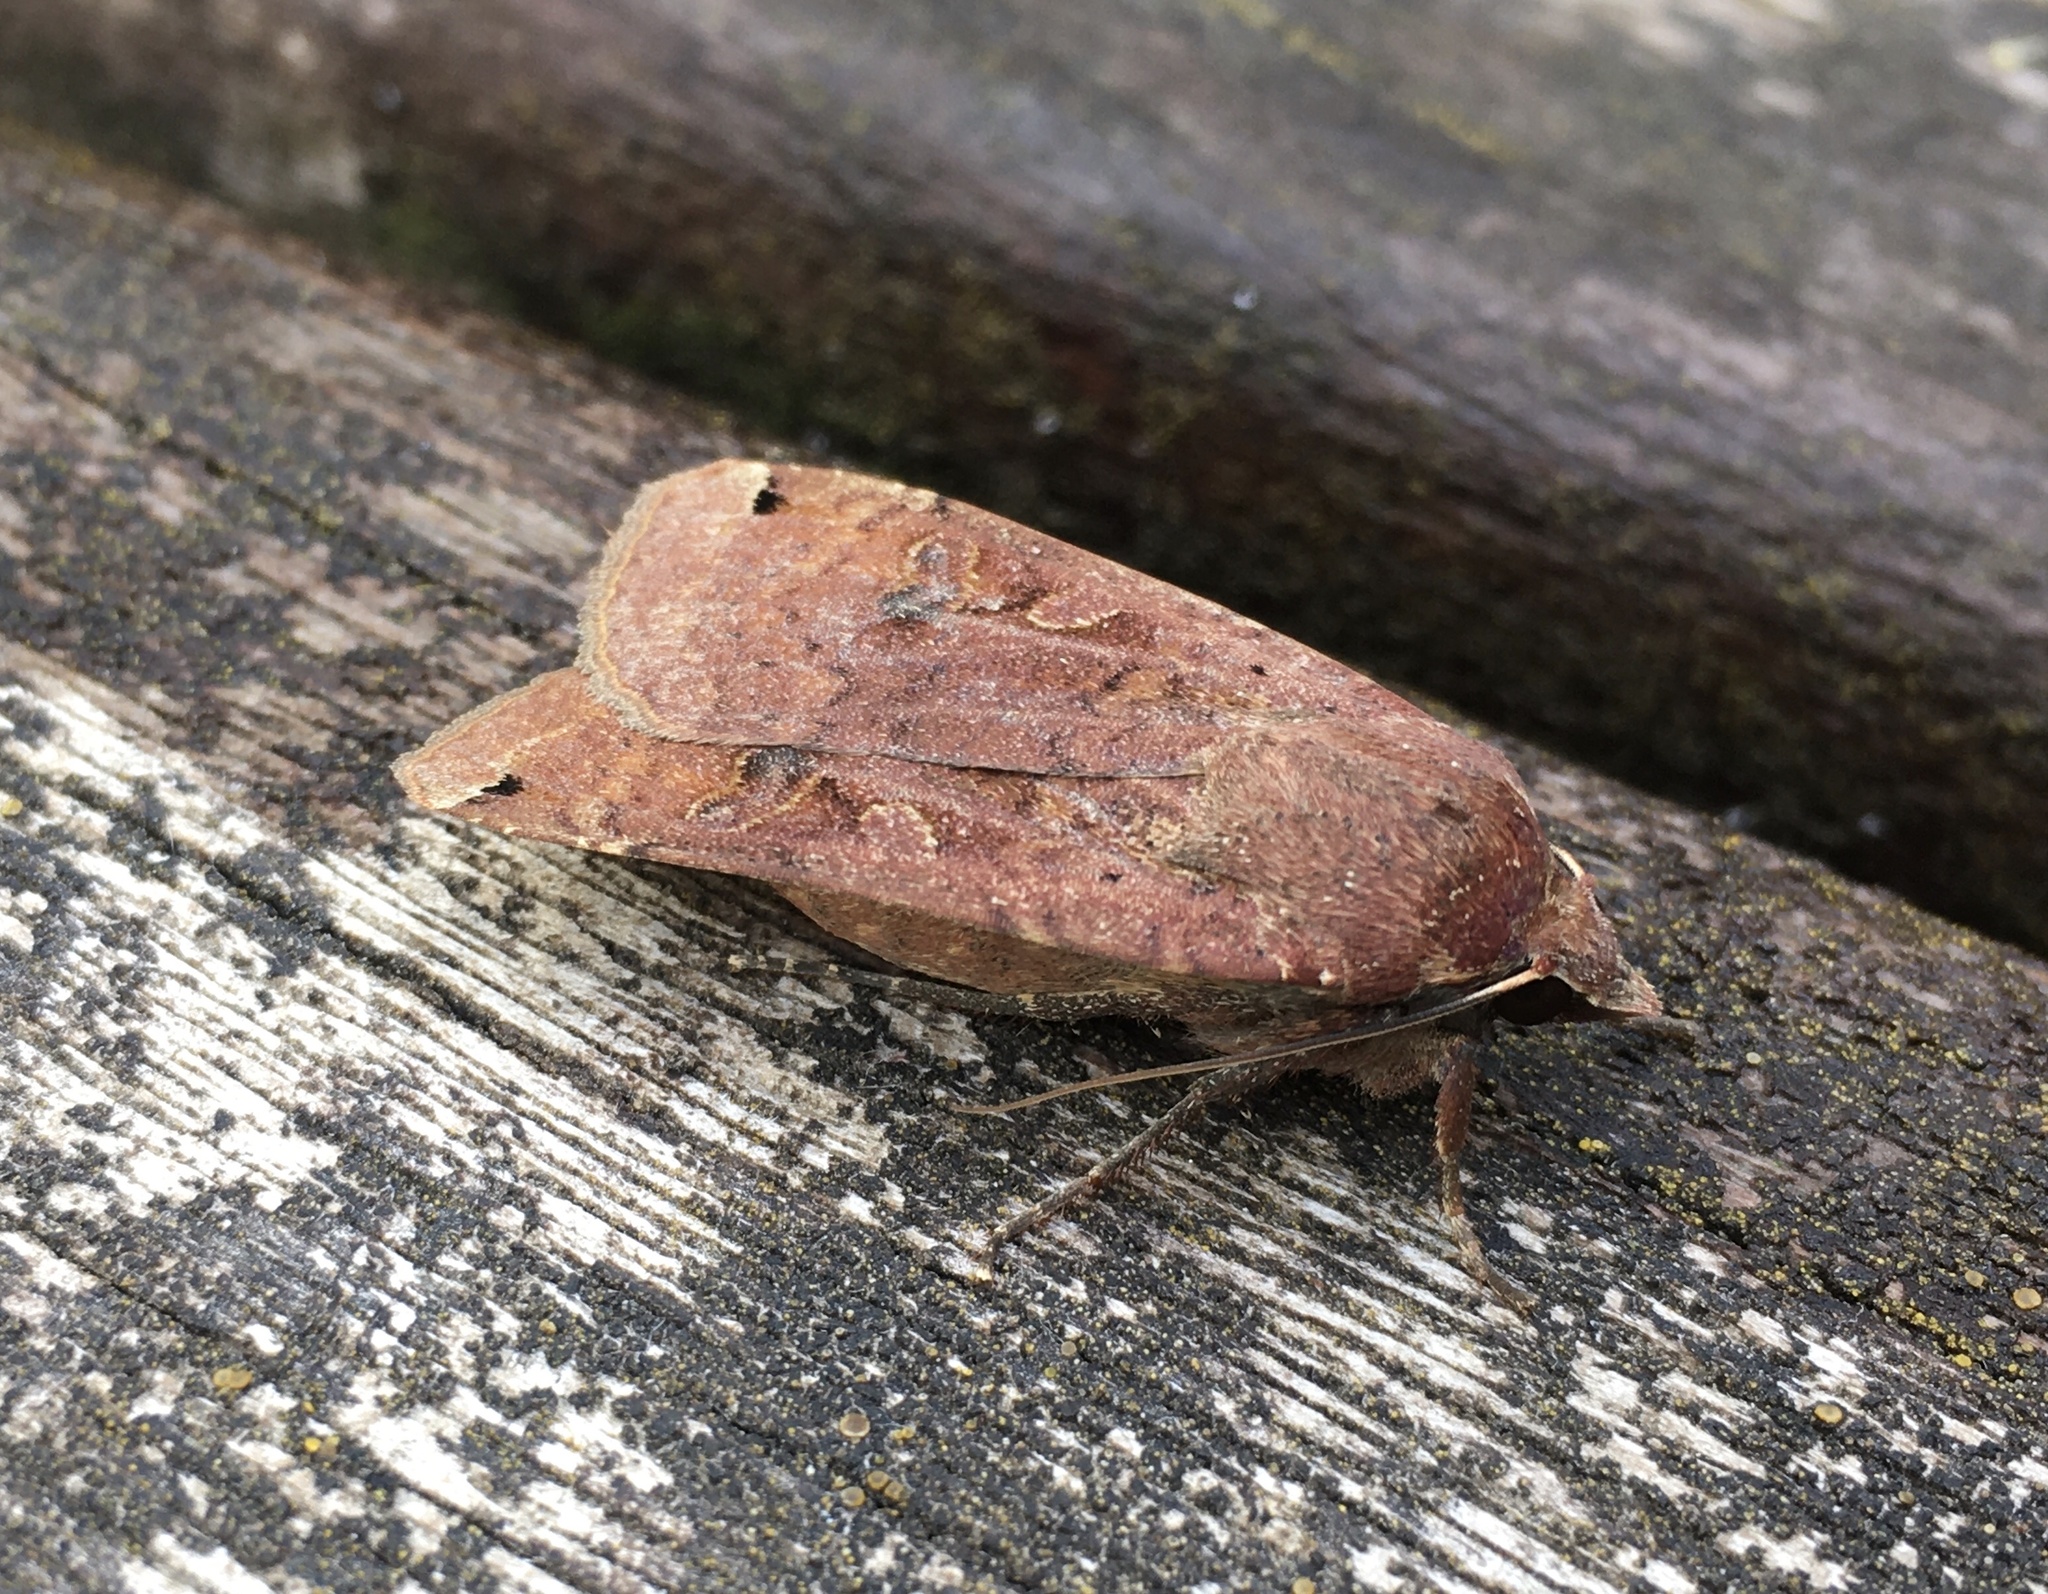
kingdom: Animalia
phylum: Arthropoda
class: Insecta
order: Lepidoptera
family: Noctuidae
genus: Noctua
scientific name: Noctua pronuba
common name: Large yellow underwing
